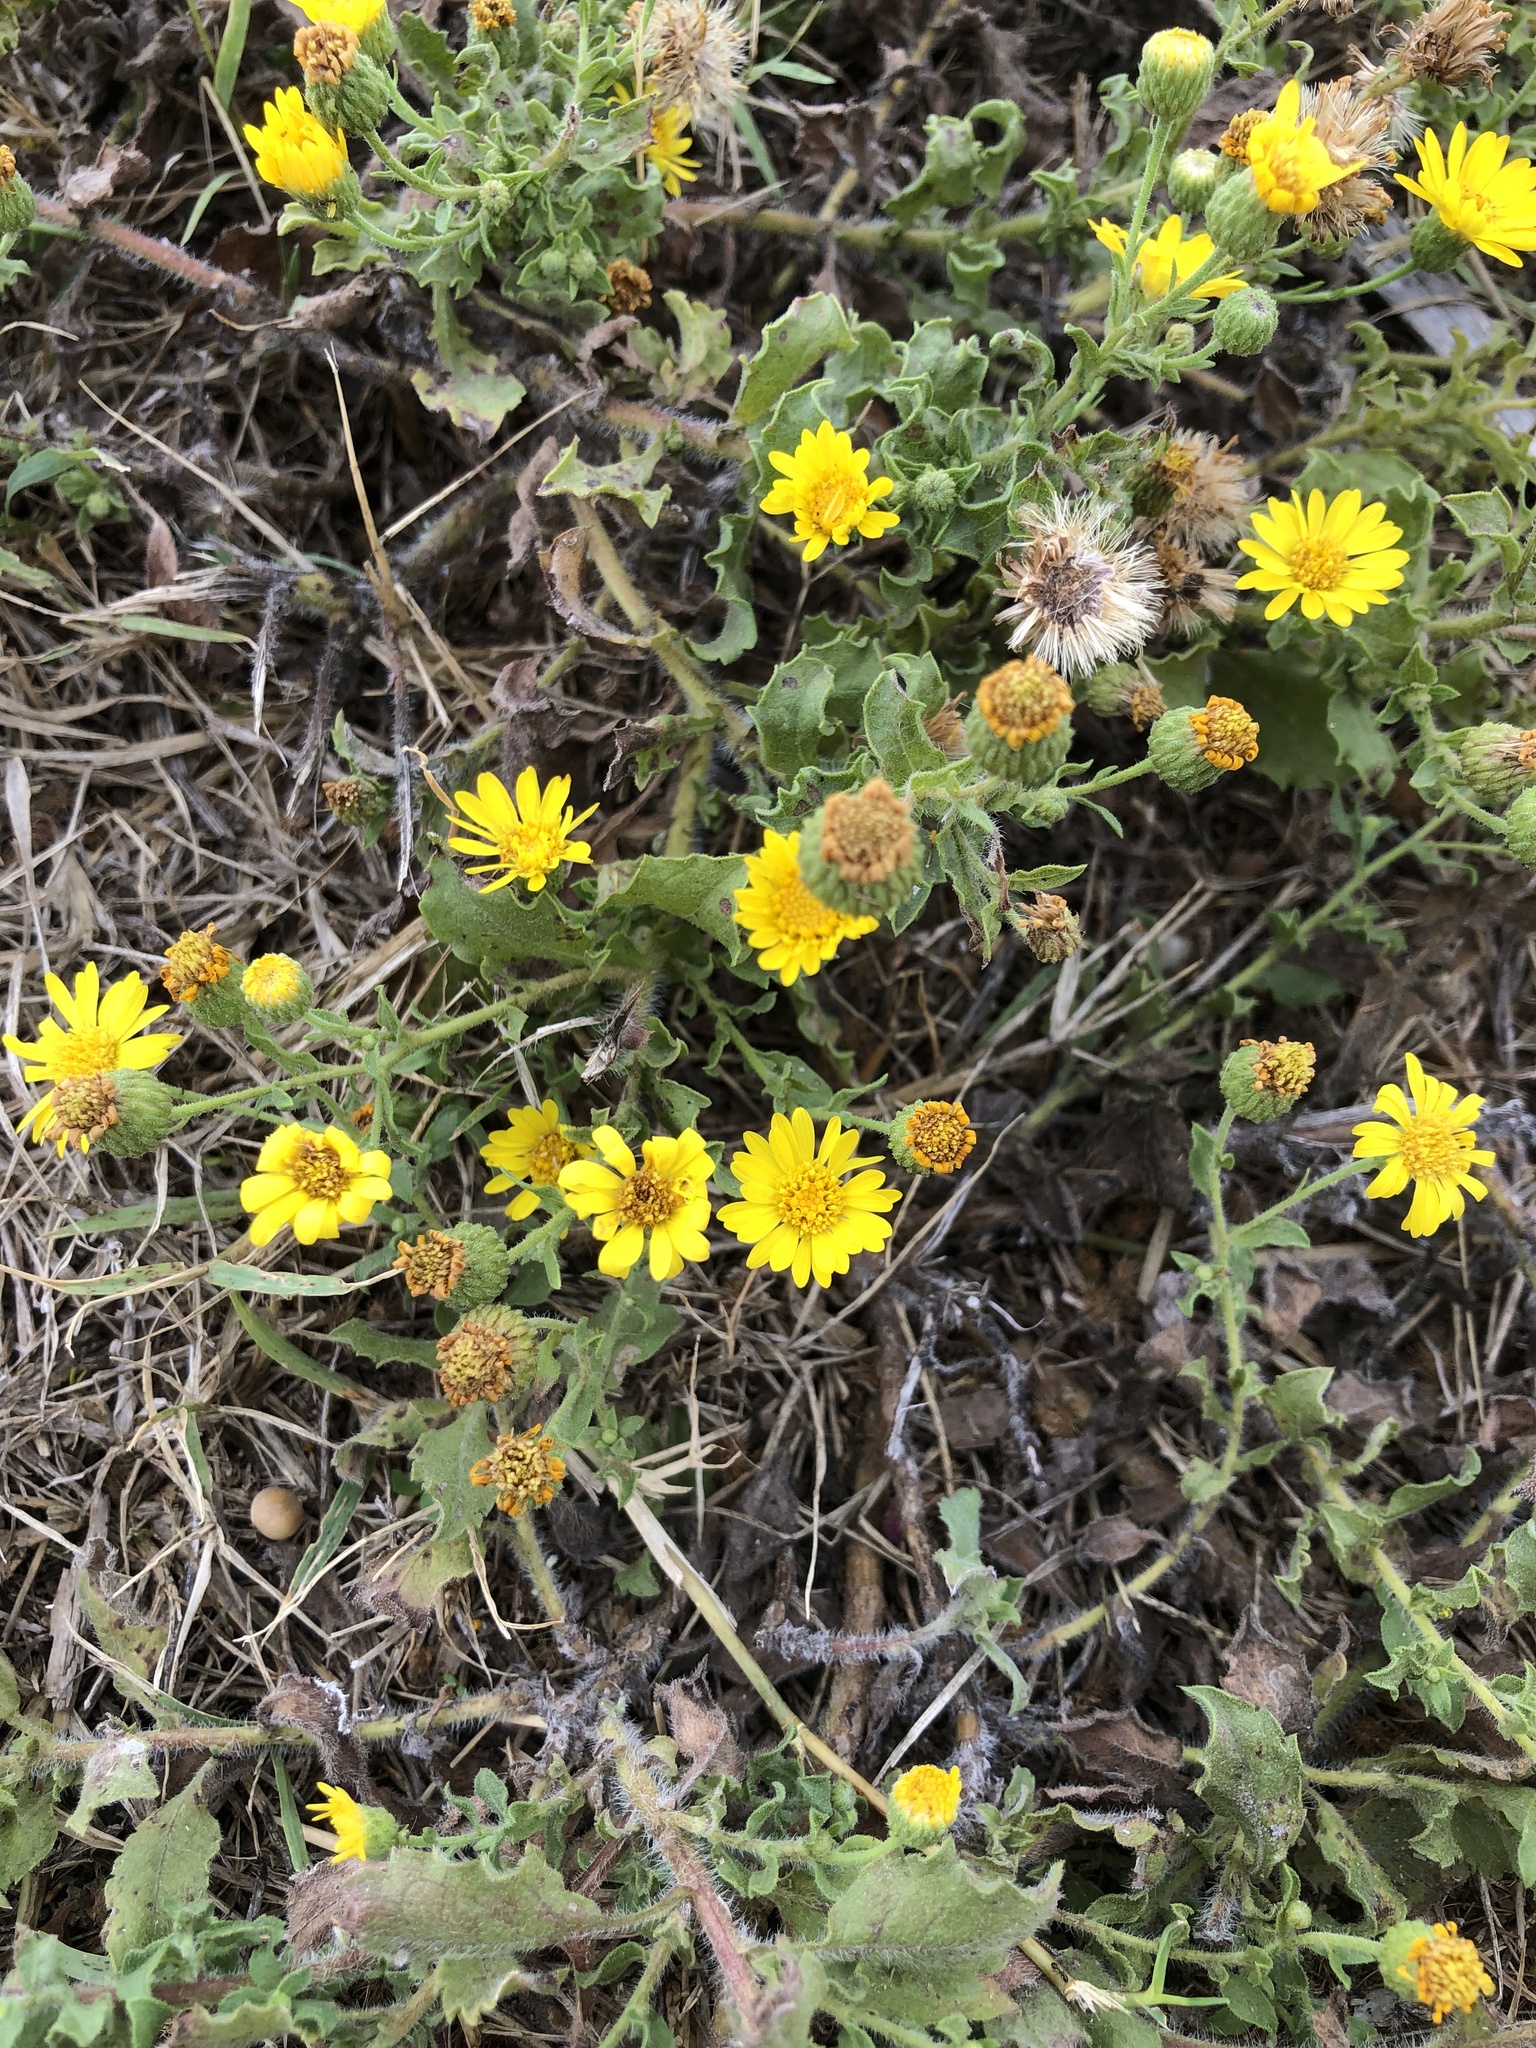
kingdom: Plantae
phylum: Tracheophyta
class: Magnoliopsida
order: Asterales
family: Asteraceae
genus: Heterotheca
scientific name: Heterotheca subaxillaris
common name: Camphorweed
